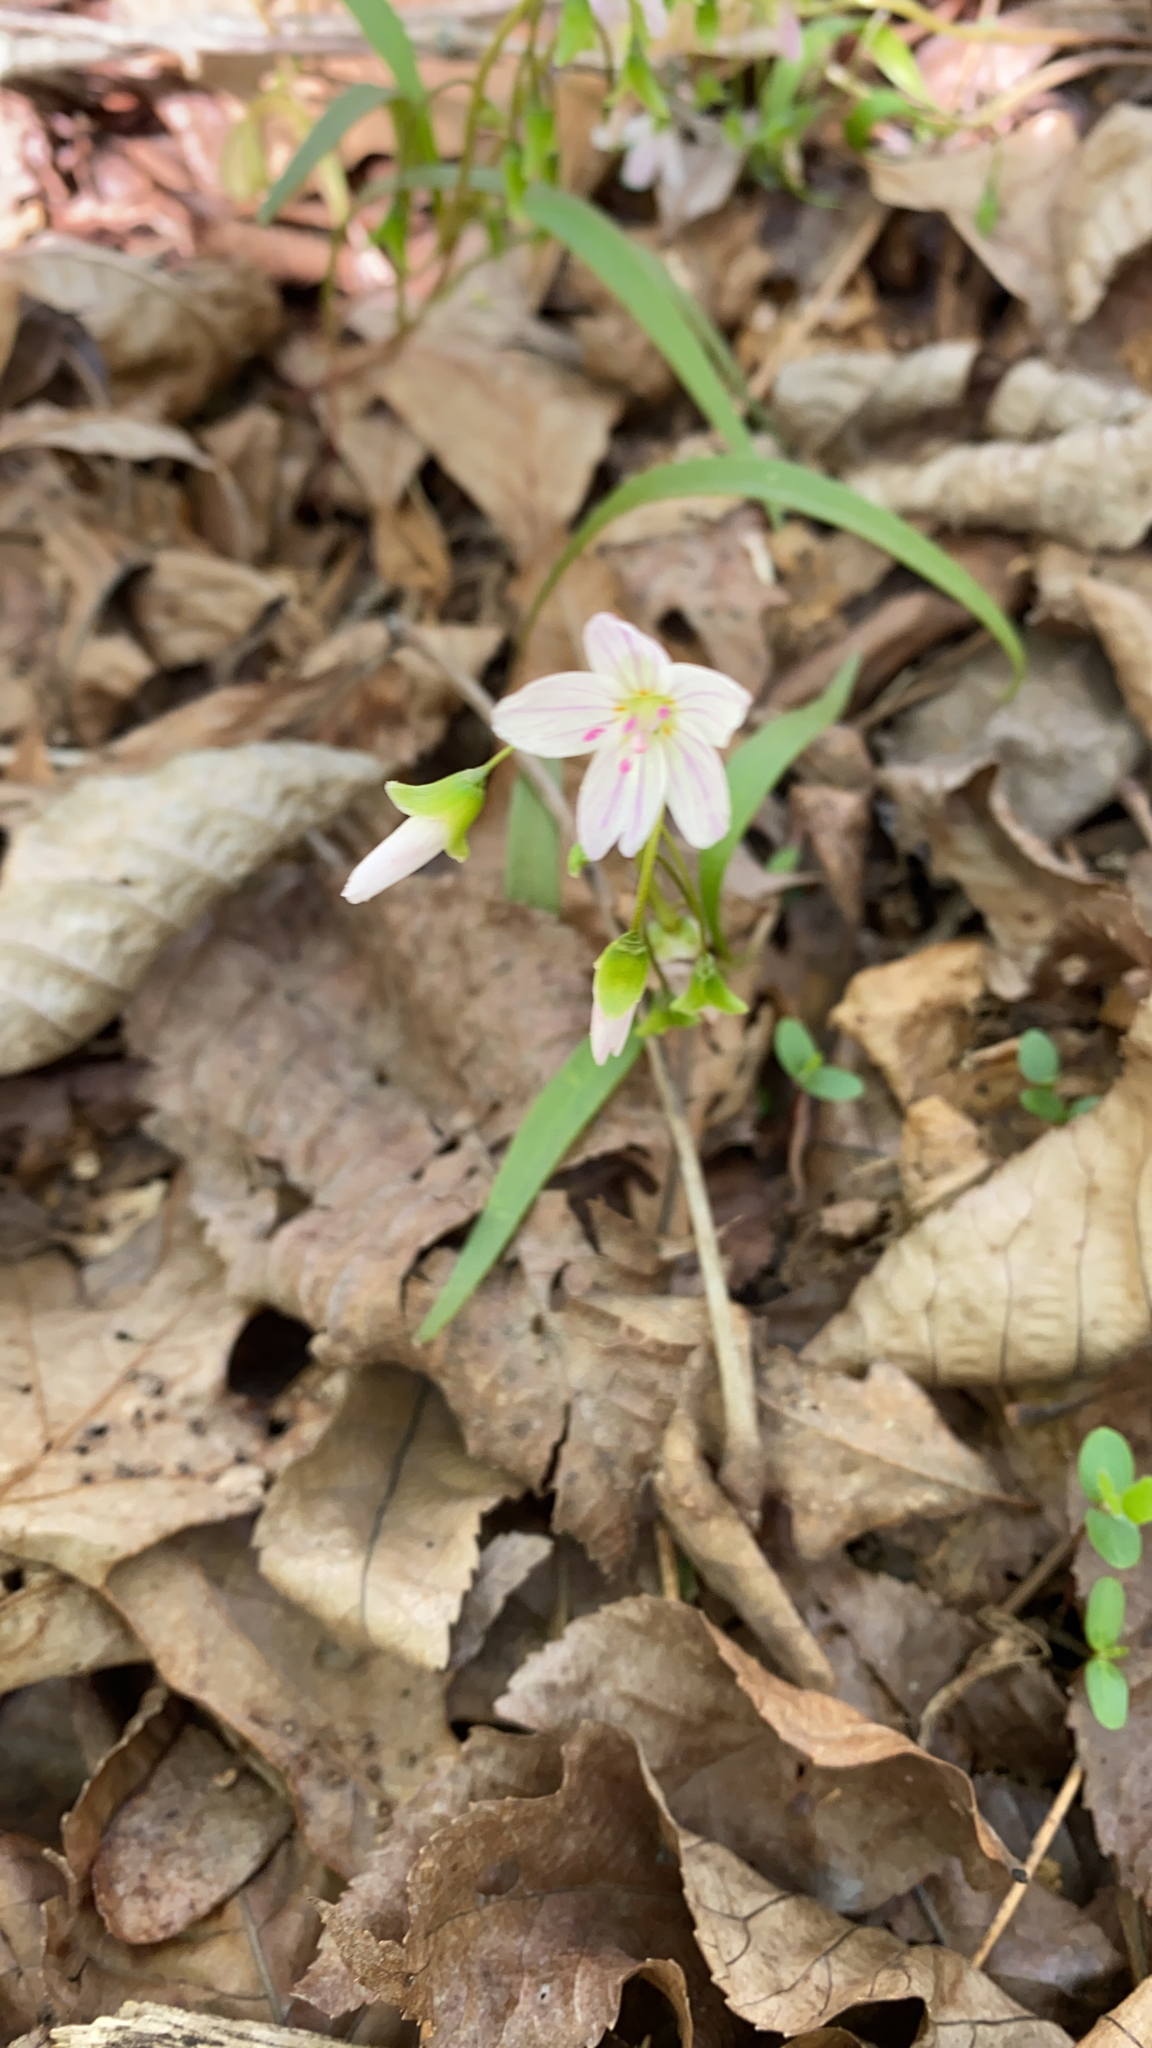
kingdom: Plantae
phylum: Tracheophyta
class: Magnoliopsida
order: Caryophyllales
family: Montiaceae
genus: Claytonia
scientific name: Claytonia virginica
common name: Virginia springbeauty
